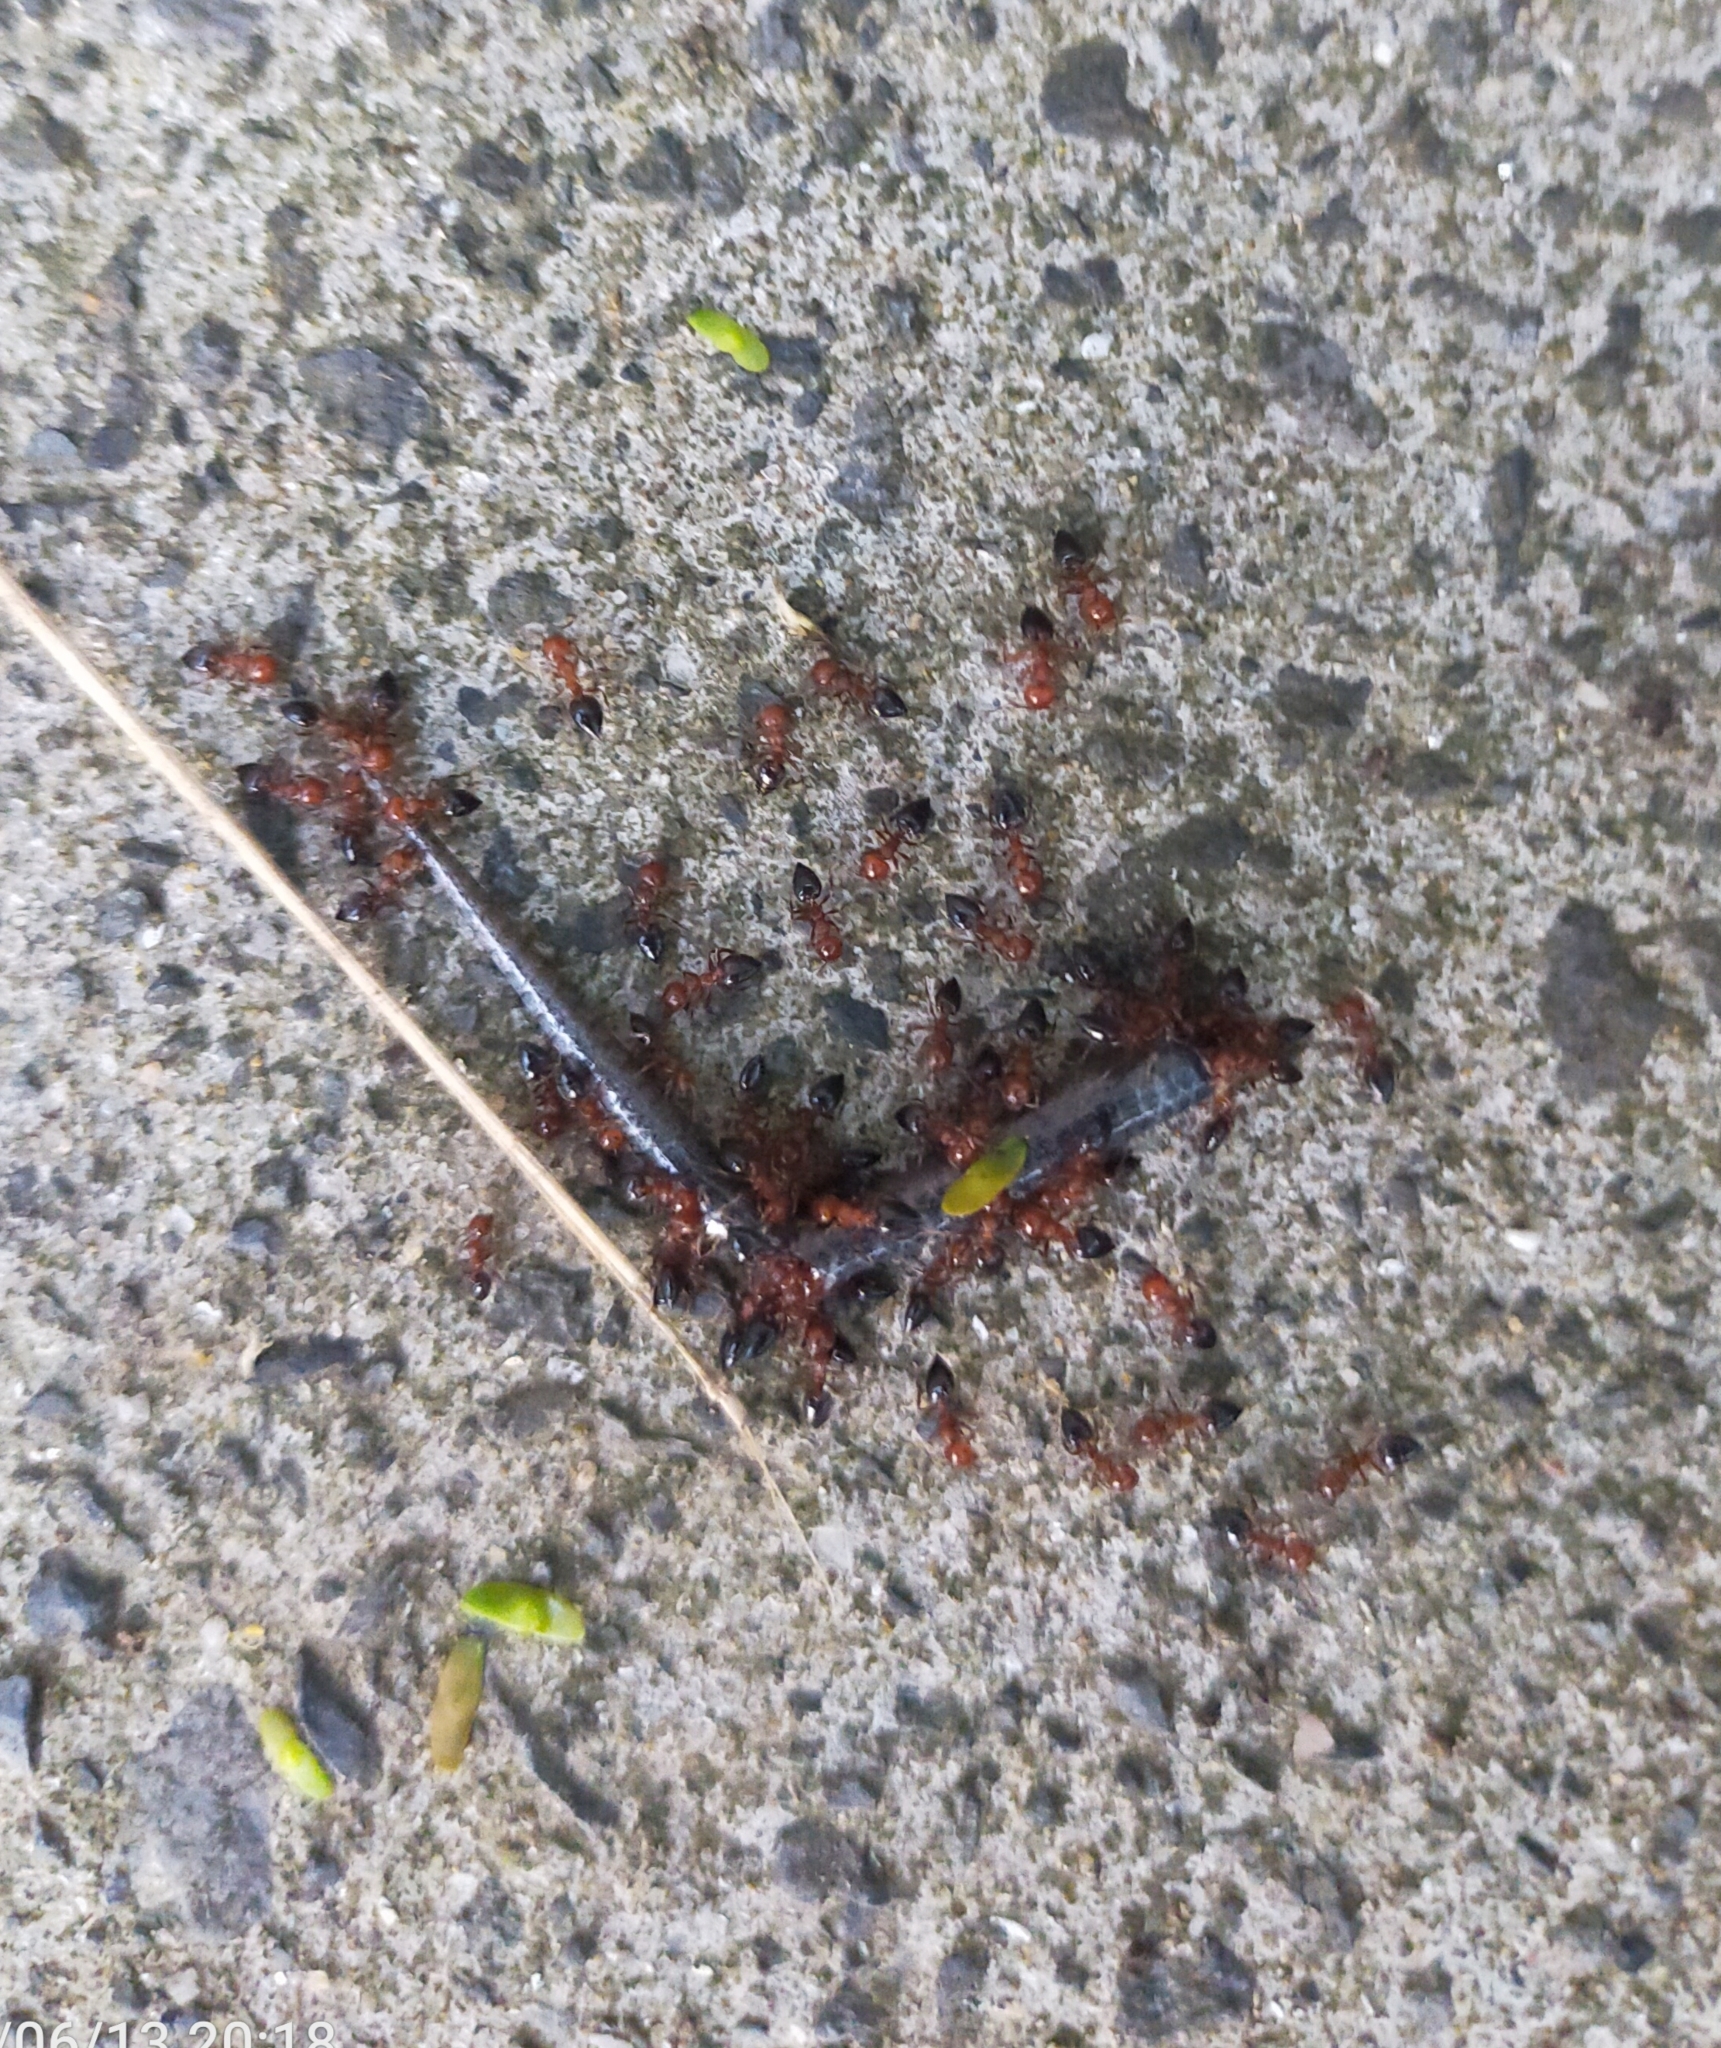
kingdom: Animalia
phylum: Chordata
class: Squamata
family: Scincidae
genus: Ablepharus
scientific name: Ablepharus kitaibelii
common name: Juniper skink
